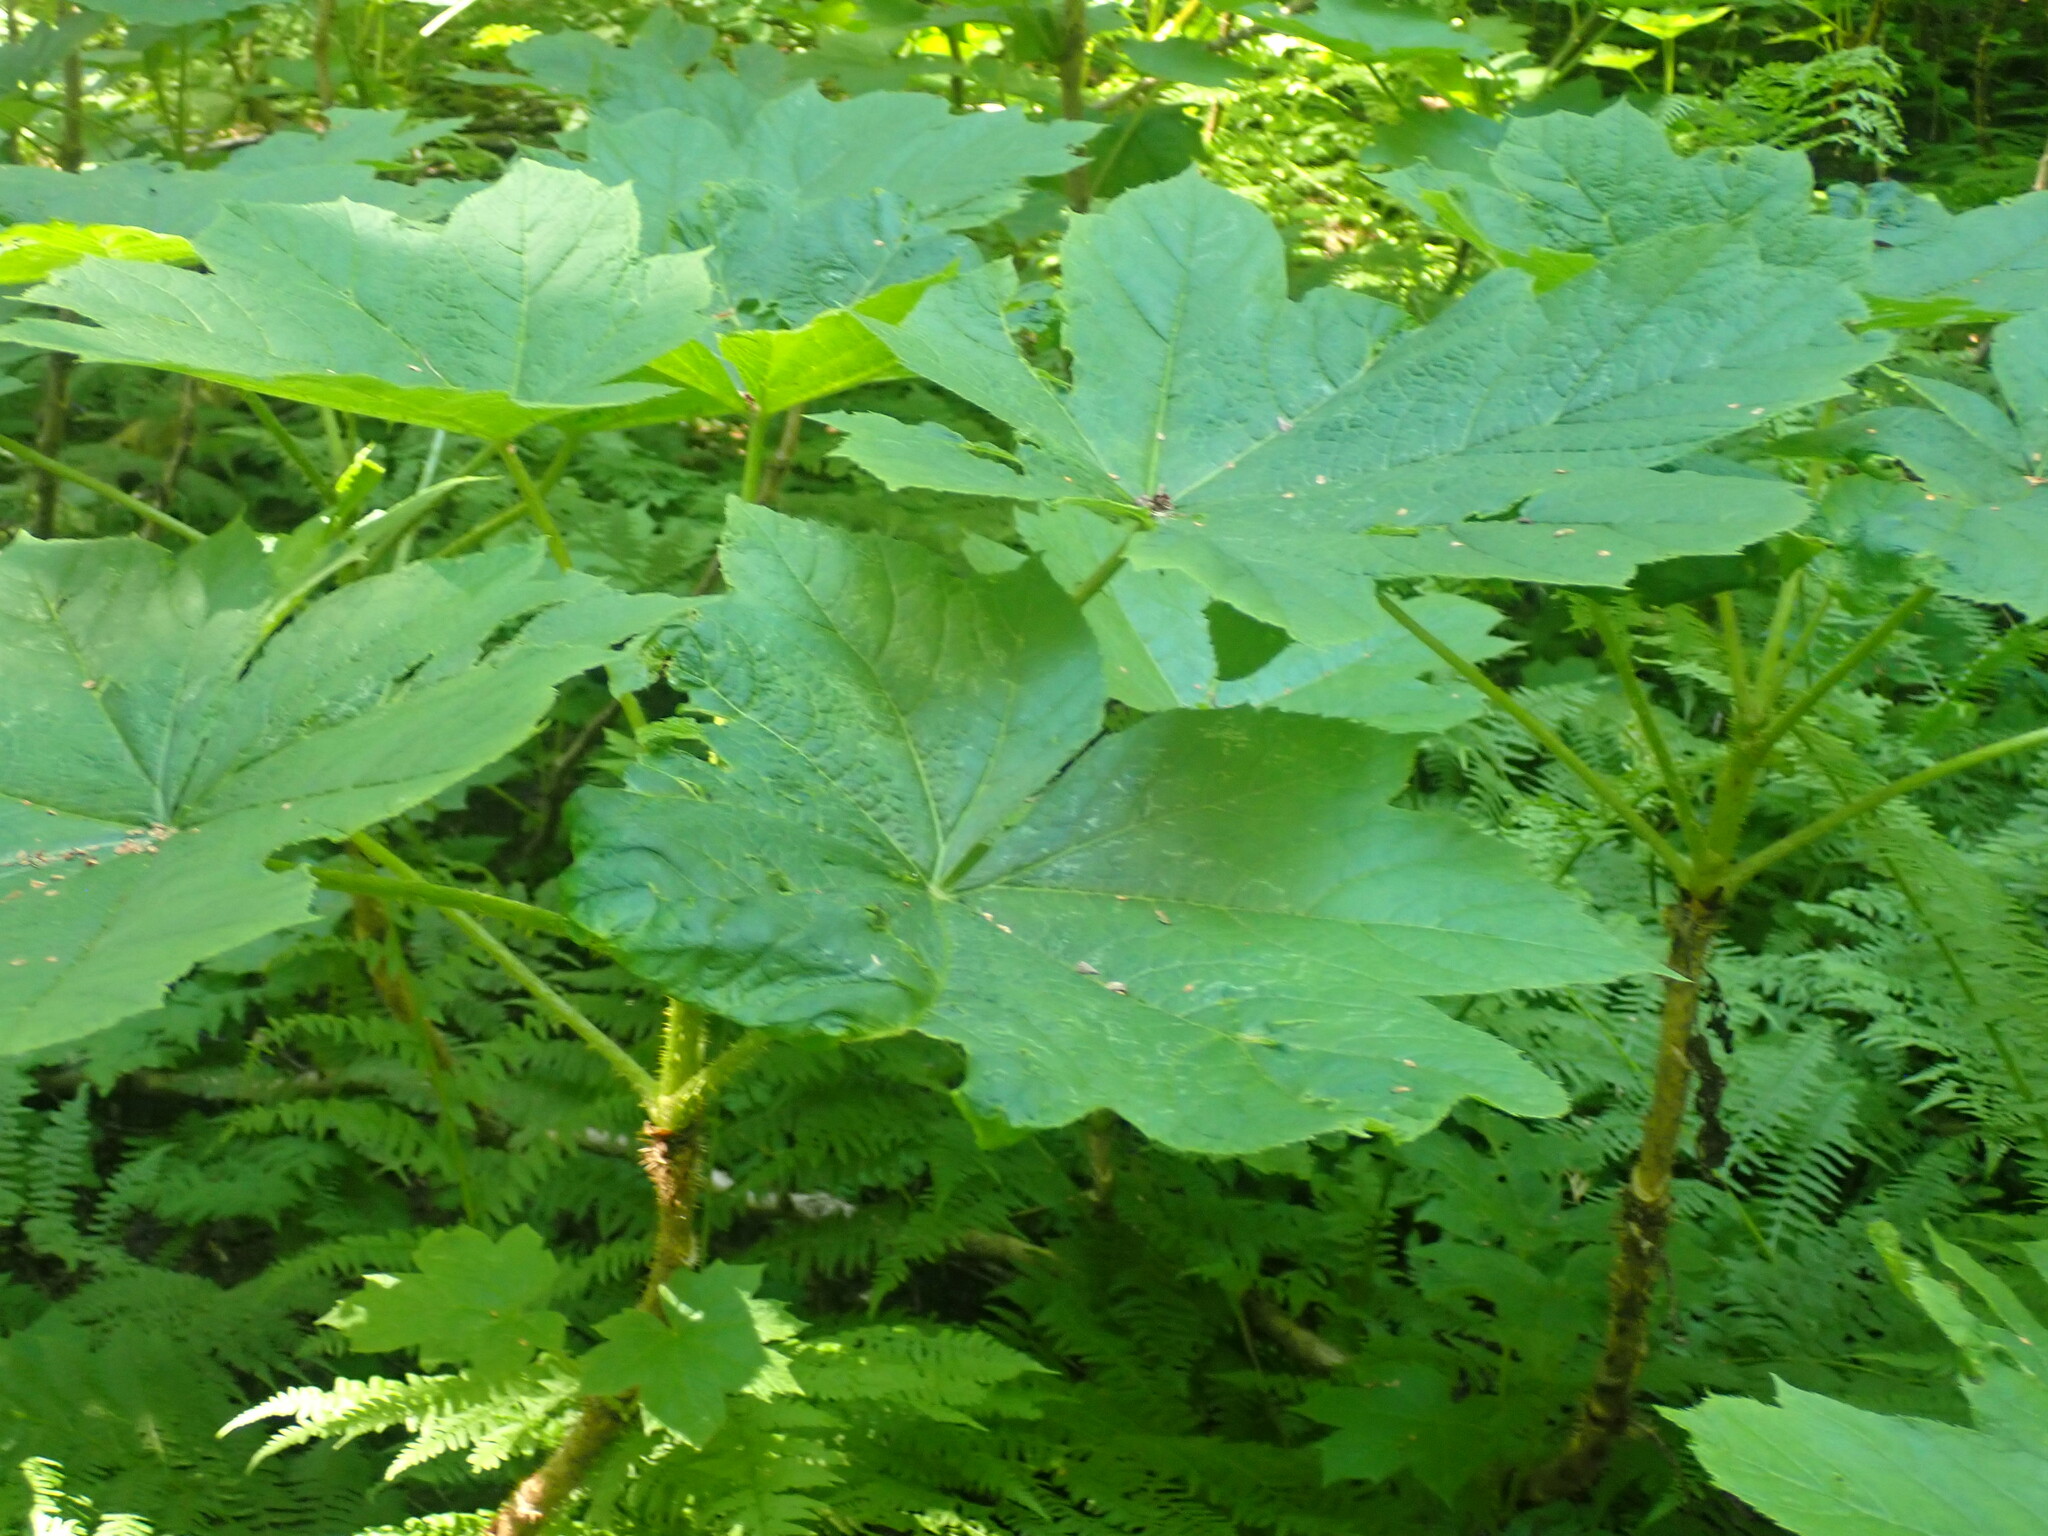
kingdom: Plantae
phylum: Tracheophyta
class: Magnoliopsida
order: Apiales
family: Araliaceae
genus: Oplopanax
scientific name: Oplopanax horridus
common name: Devil's walking-stick
